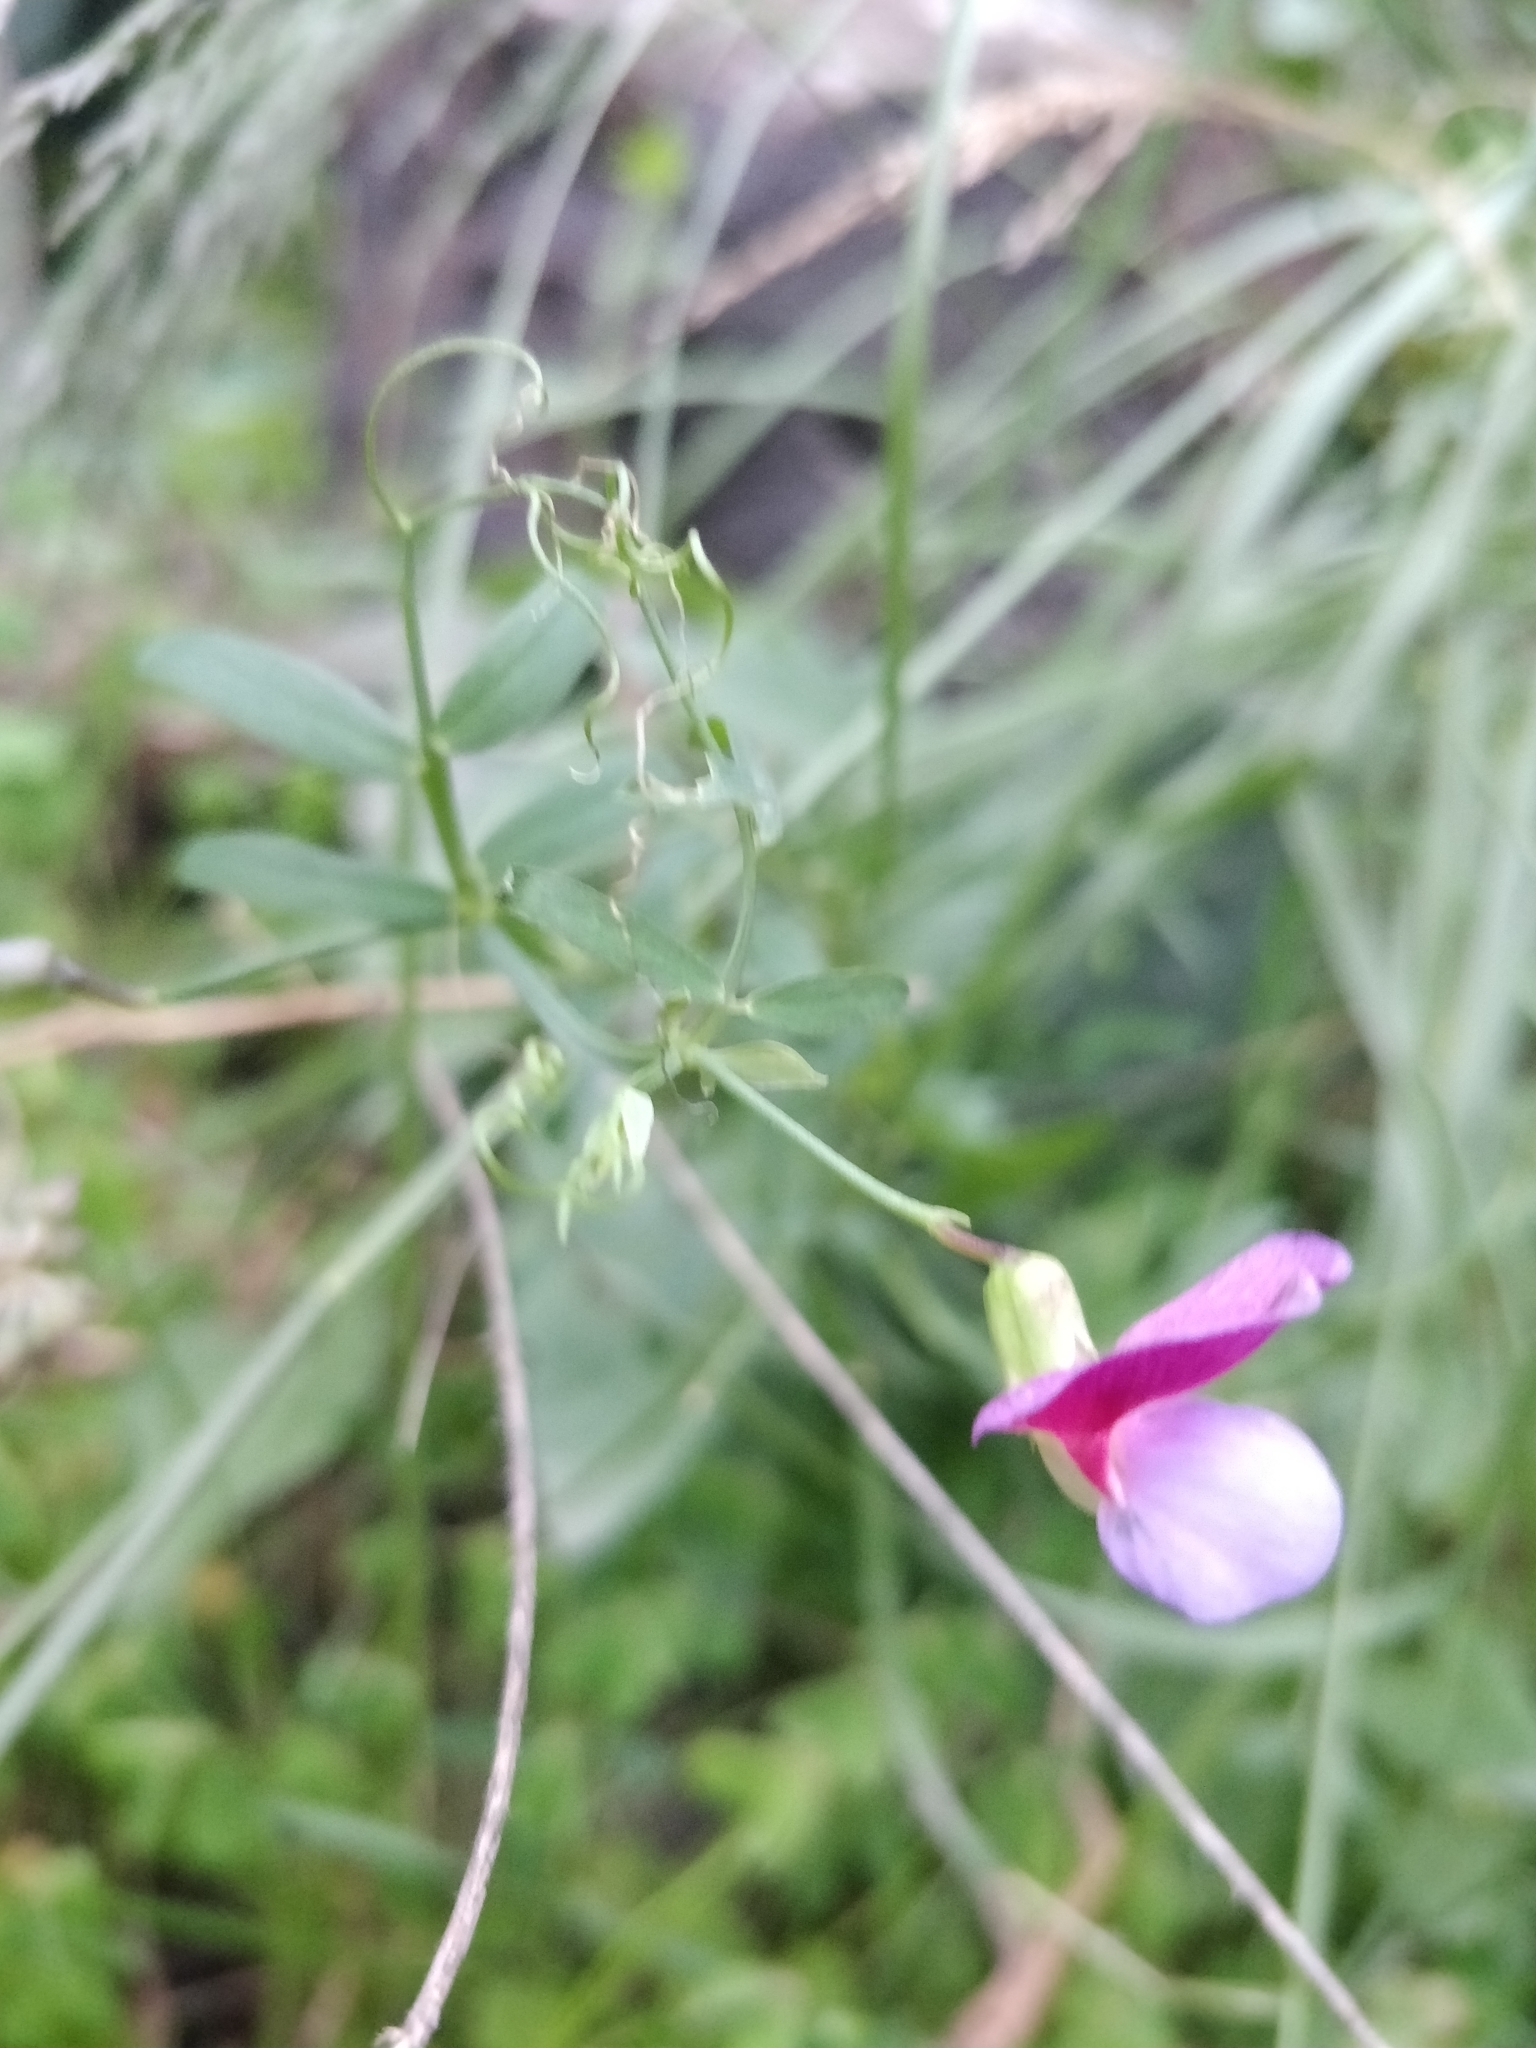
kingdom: Plantae
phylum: Tracheophyta
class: Magnoliopsida
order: Fabales
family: Fabaceae
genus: Lathyrus
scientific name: Lathyrus clymenum
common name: Spanish vetchling
